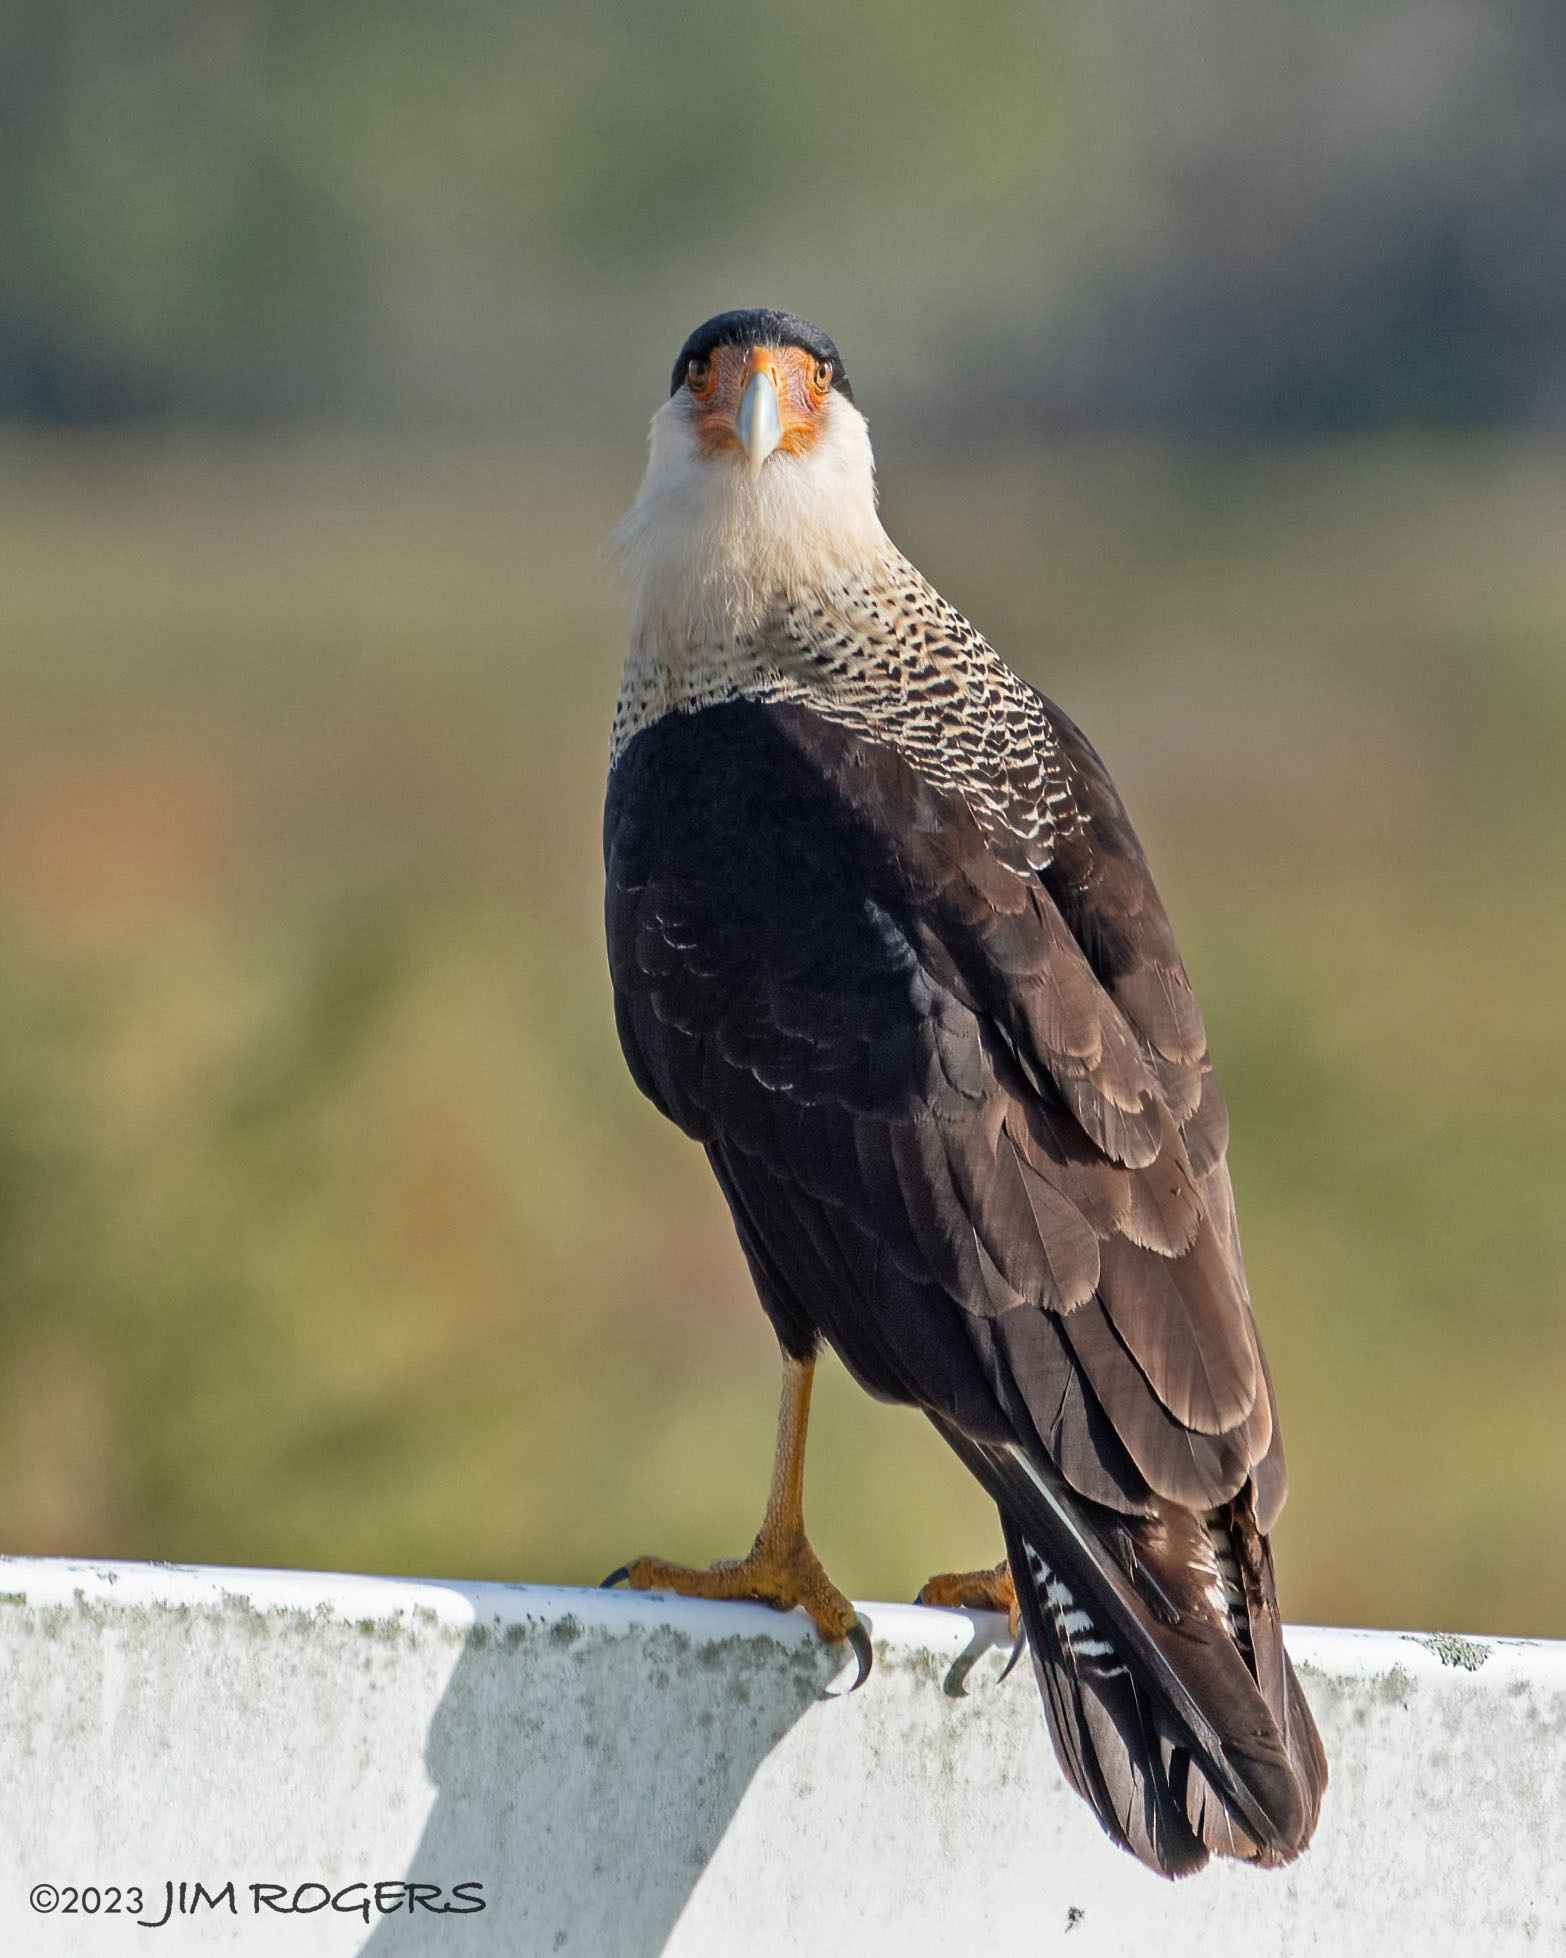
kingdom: Animalia
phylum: Chordata
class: Aves
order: Falconiformes
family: Falconidae
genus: Caracara
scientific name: Caracara plancus
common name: Southern caracara
